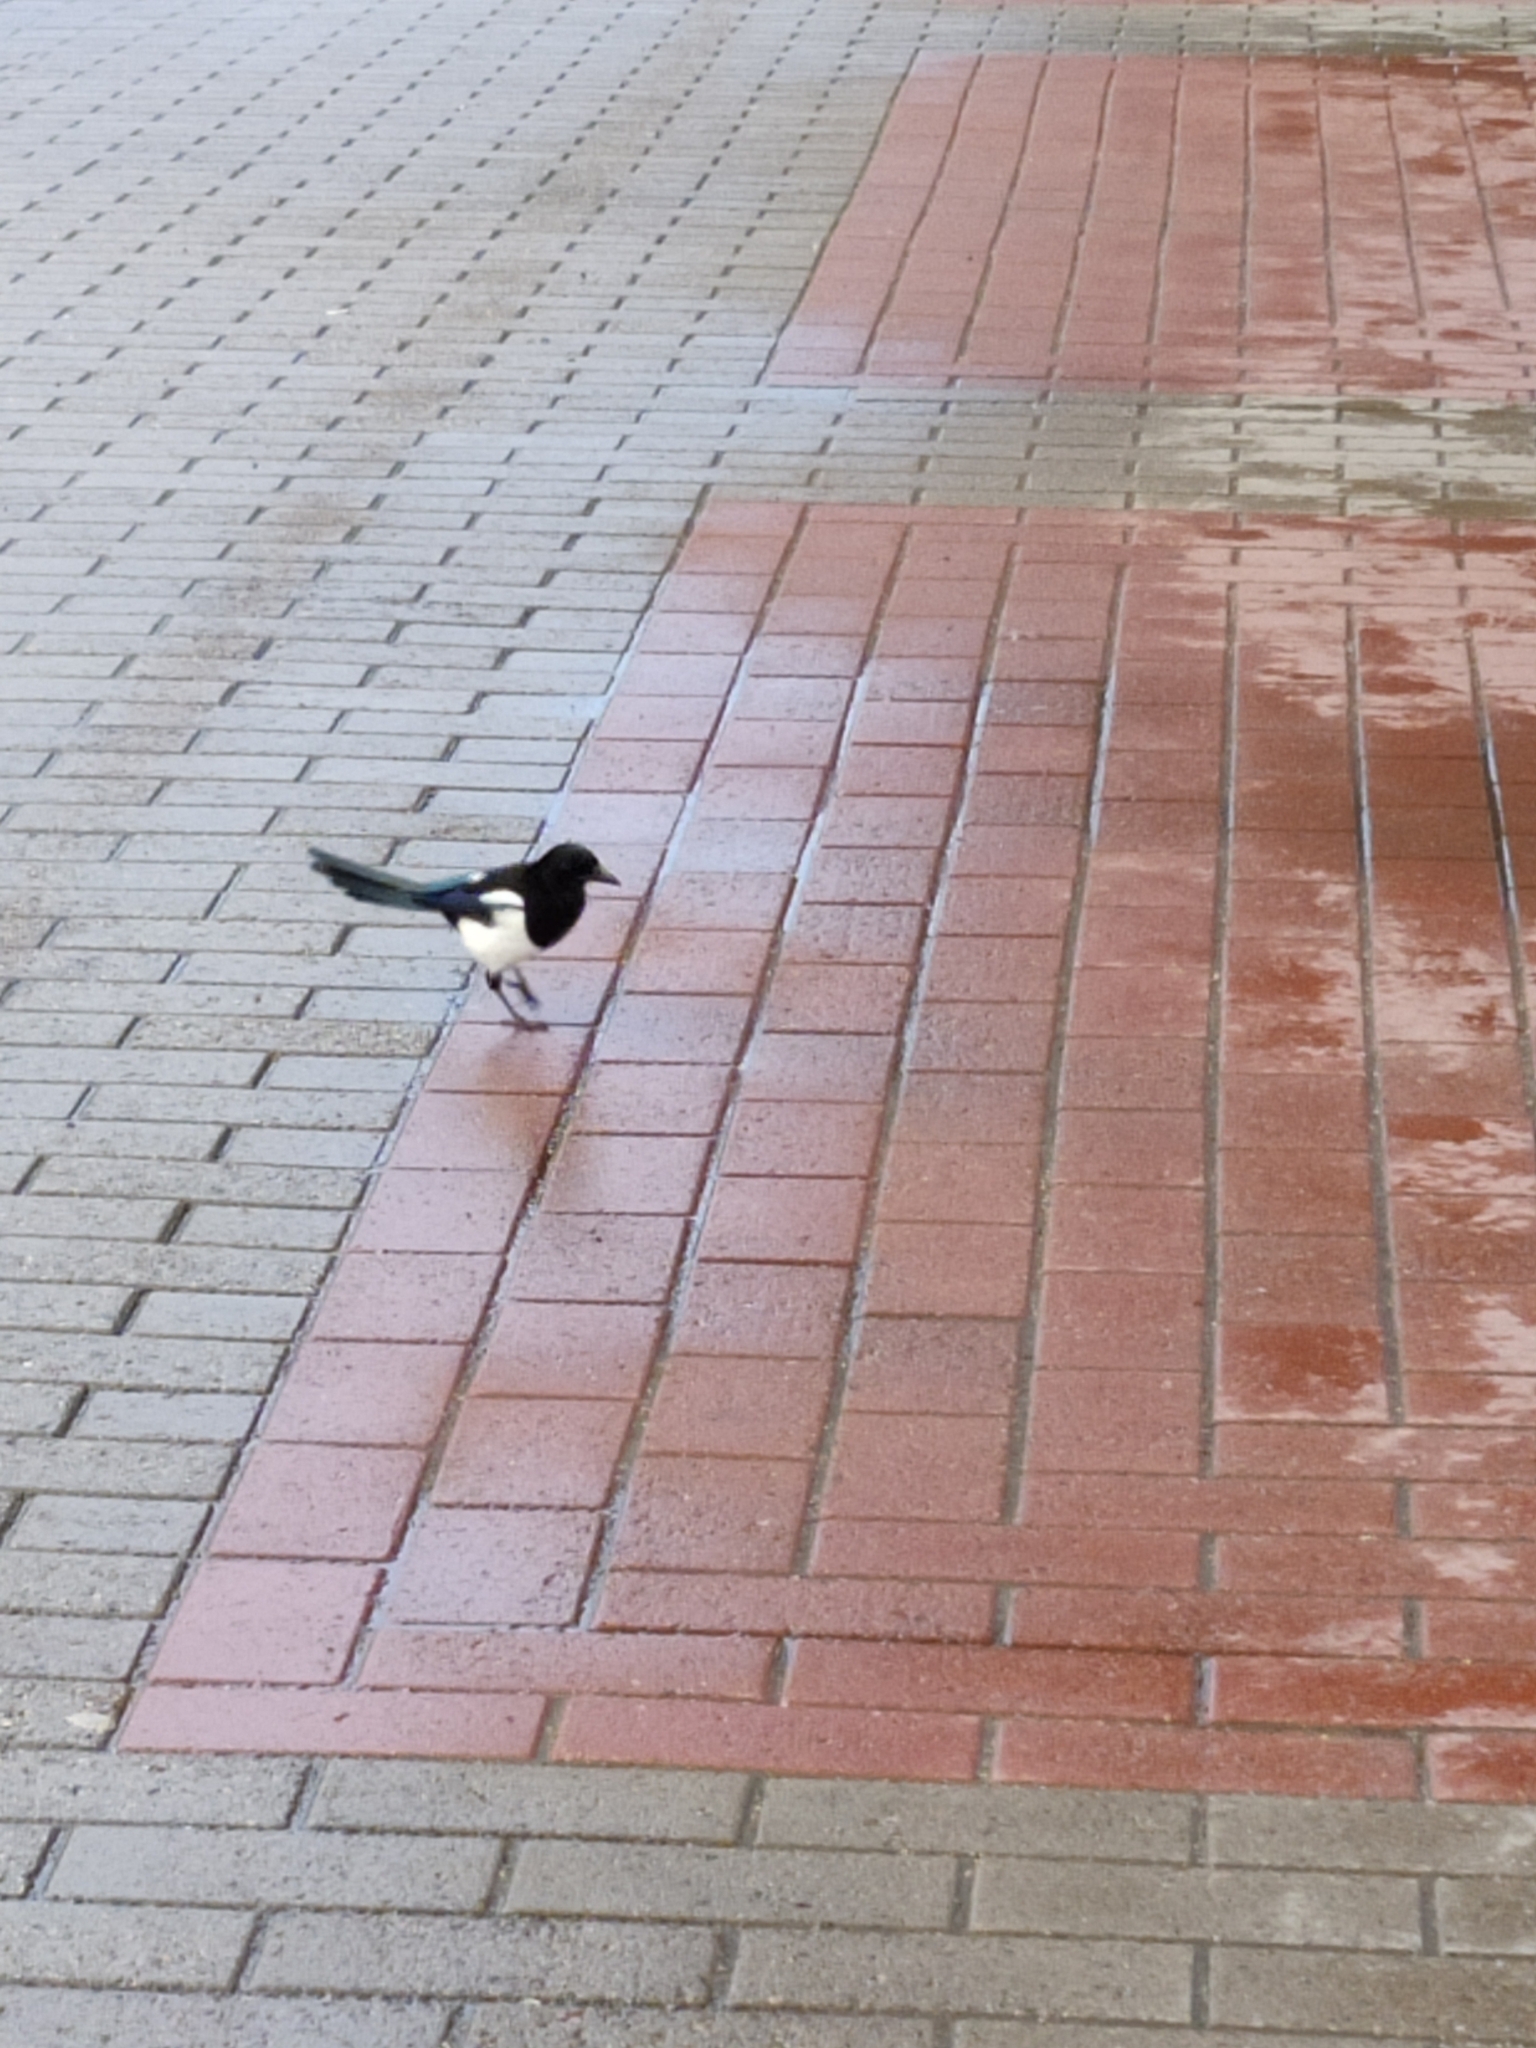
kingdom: Animalia
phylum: Chordata
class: Aves
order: Passeriformes
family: Corvidae
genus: Pica
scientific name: Pica pica
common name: Eurasian magpie
